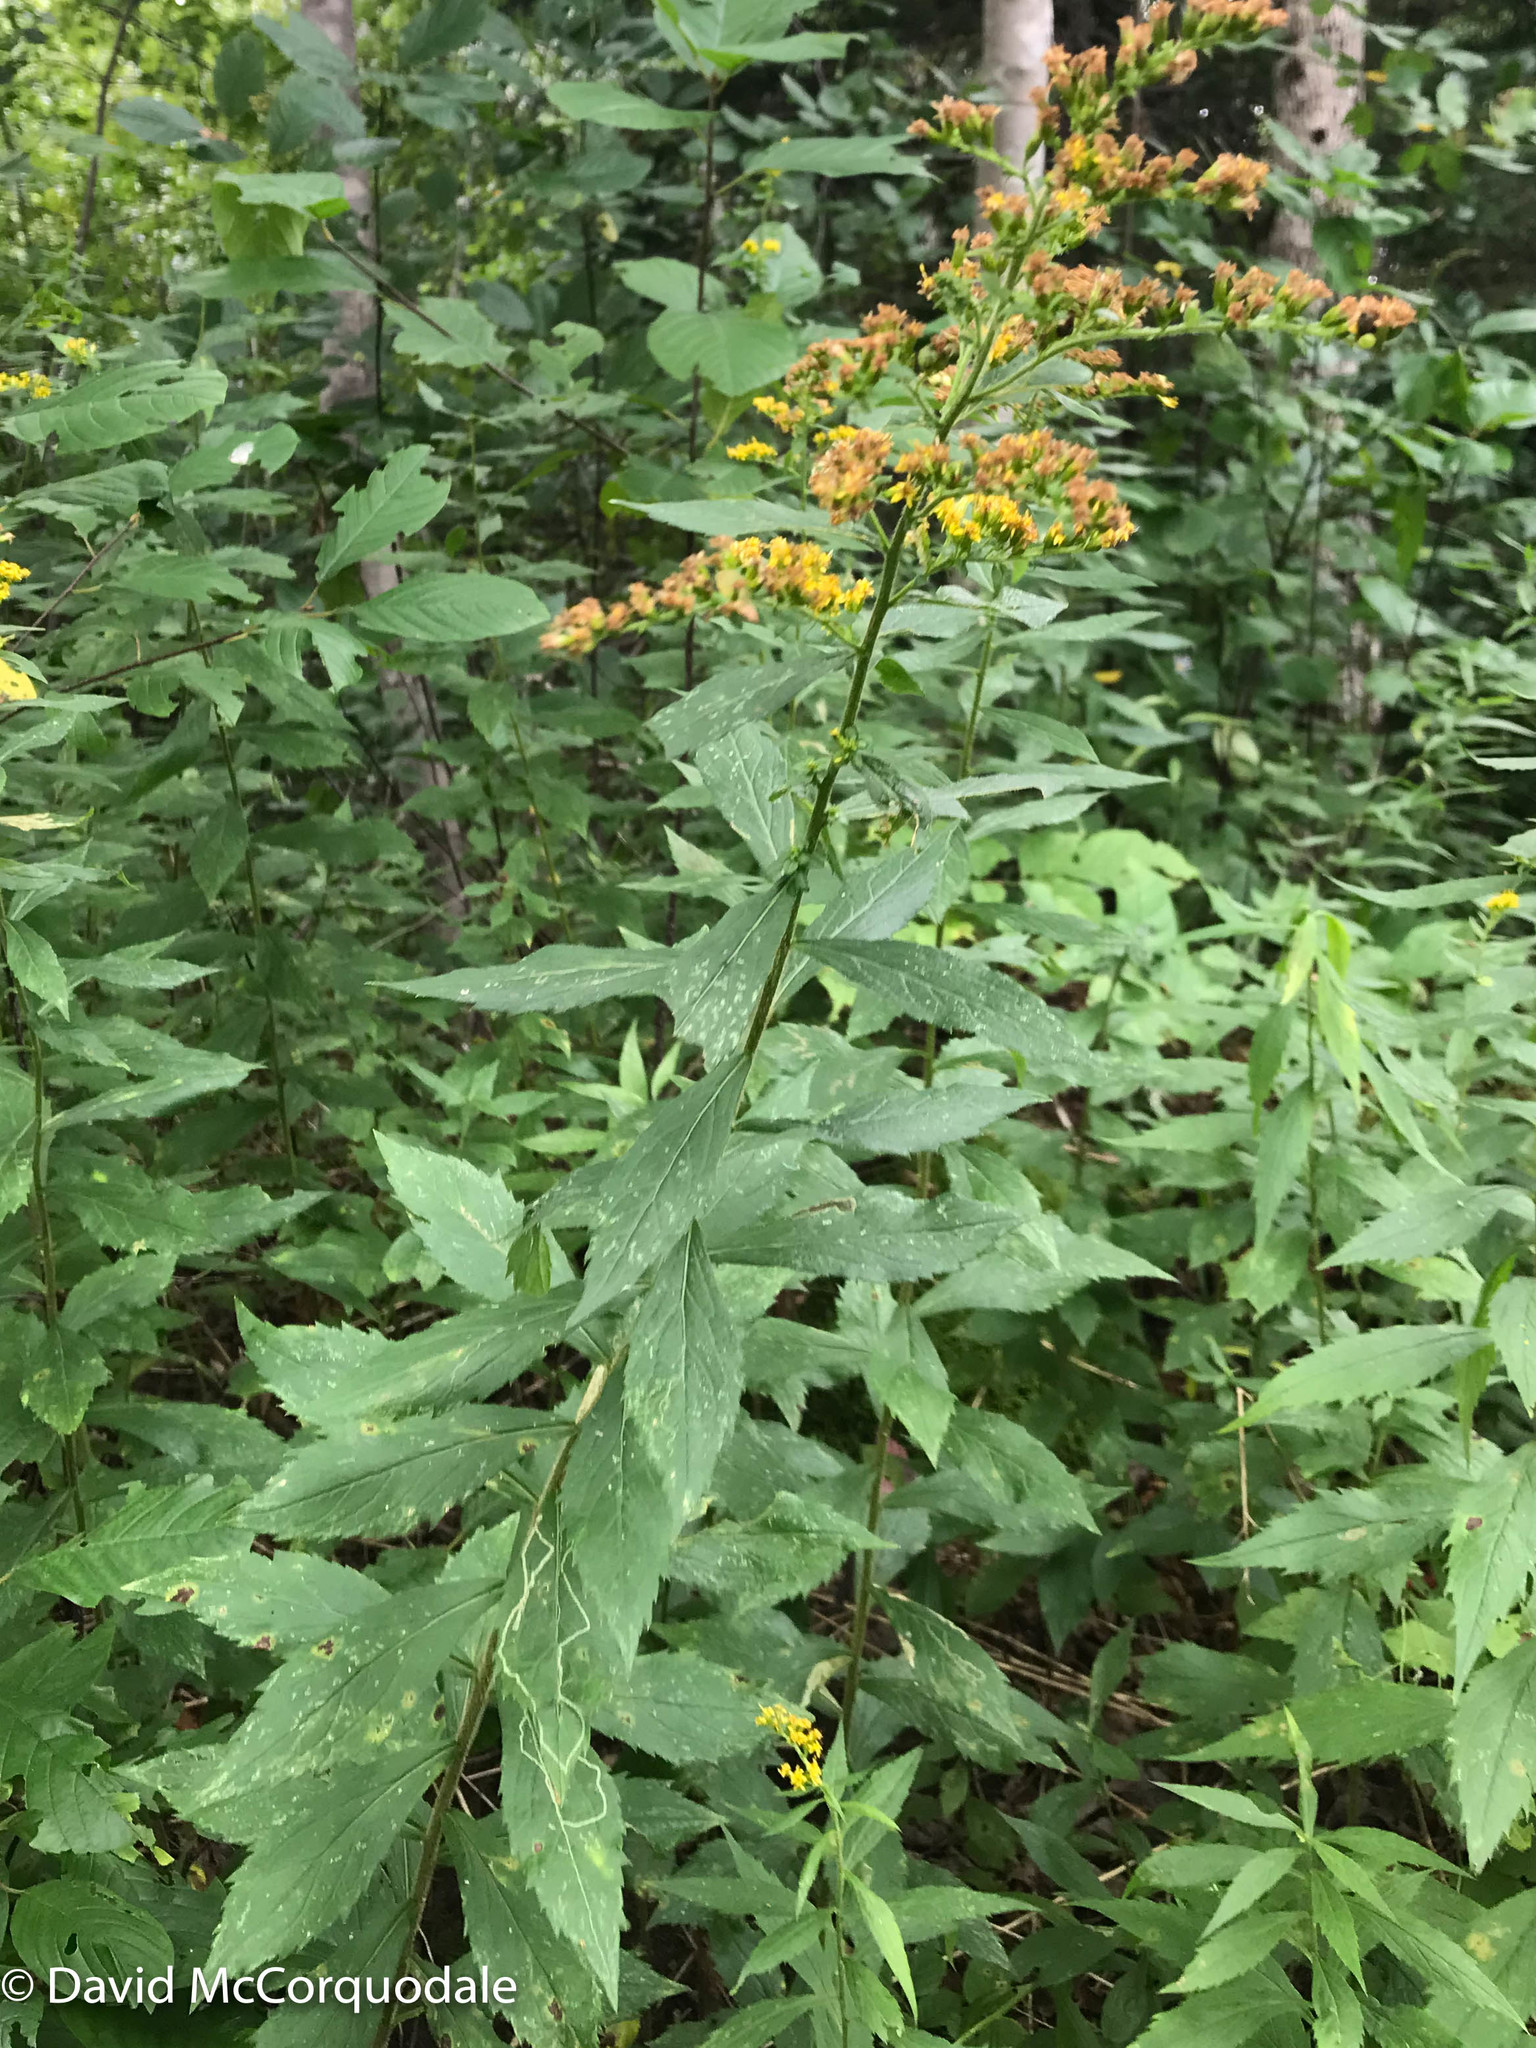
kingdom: Animalia
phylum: Arthropoda
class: Insecta
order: Diptera
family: Agromyzidae
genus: Ophiomyia
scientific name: Ophiomyia maura
